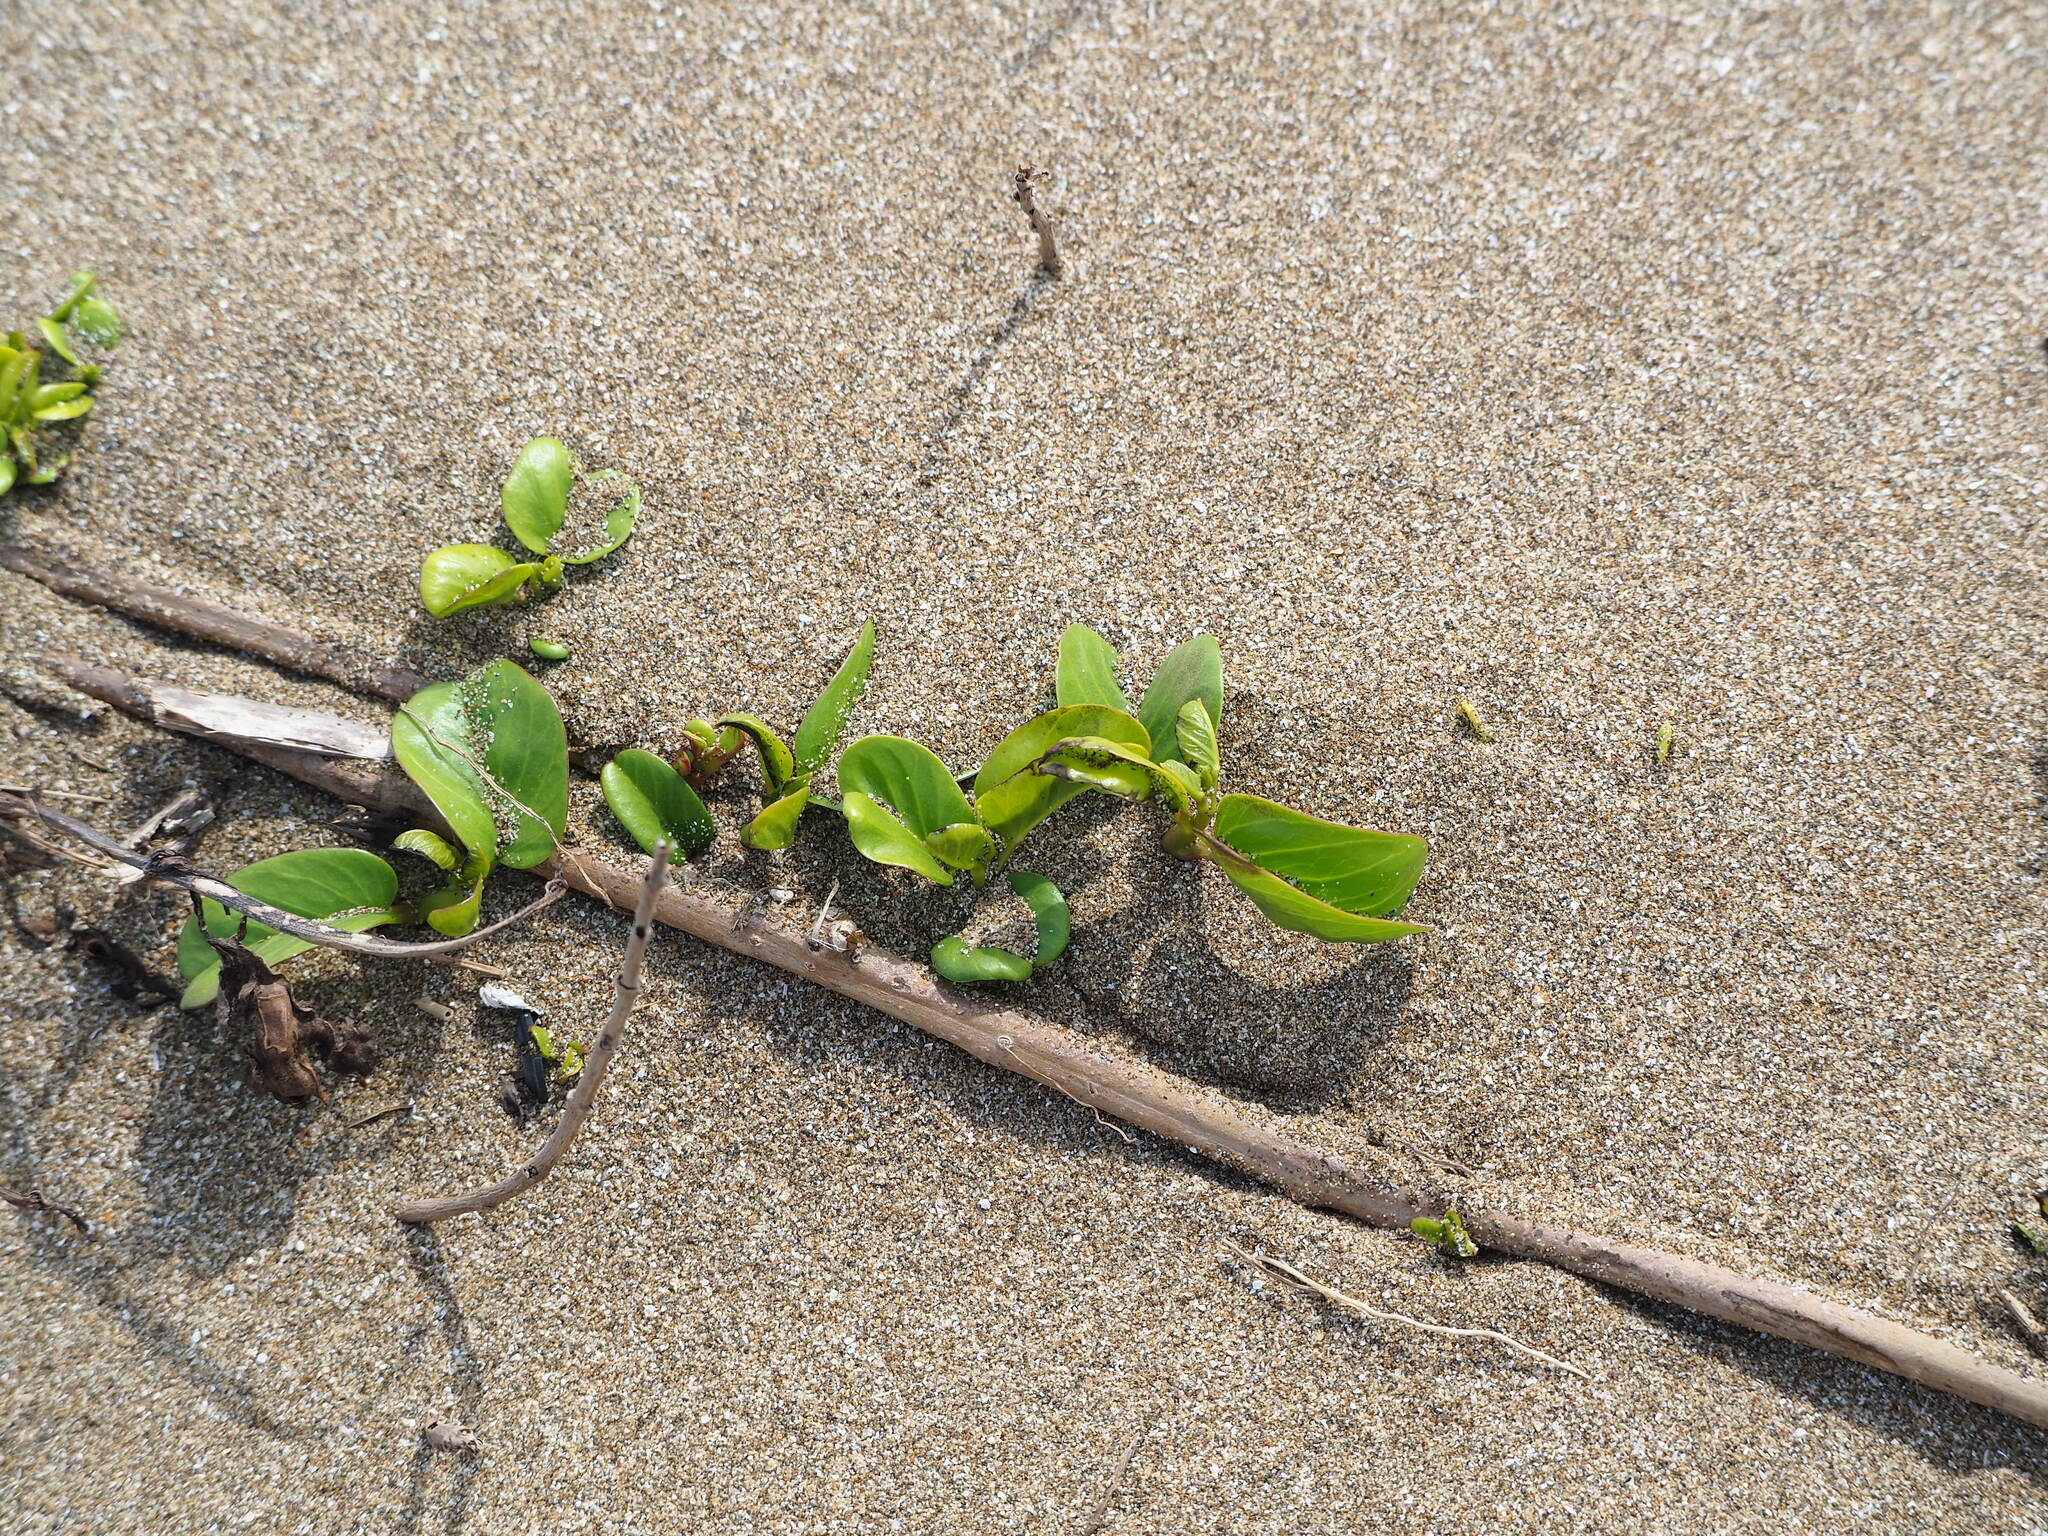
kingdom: Plantae
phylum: Tracheophyta
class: Magnoliopsida
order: Solanales
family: Convolvulaceae
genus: Ipomoea
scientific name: Ipomoea pes-caprae
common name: Beach morning glory
